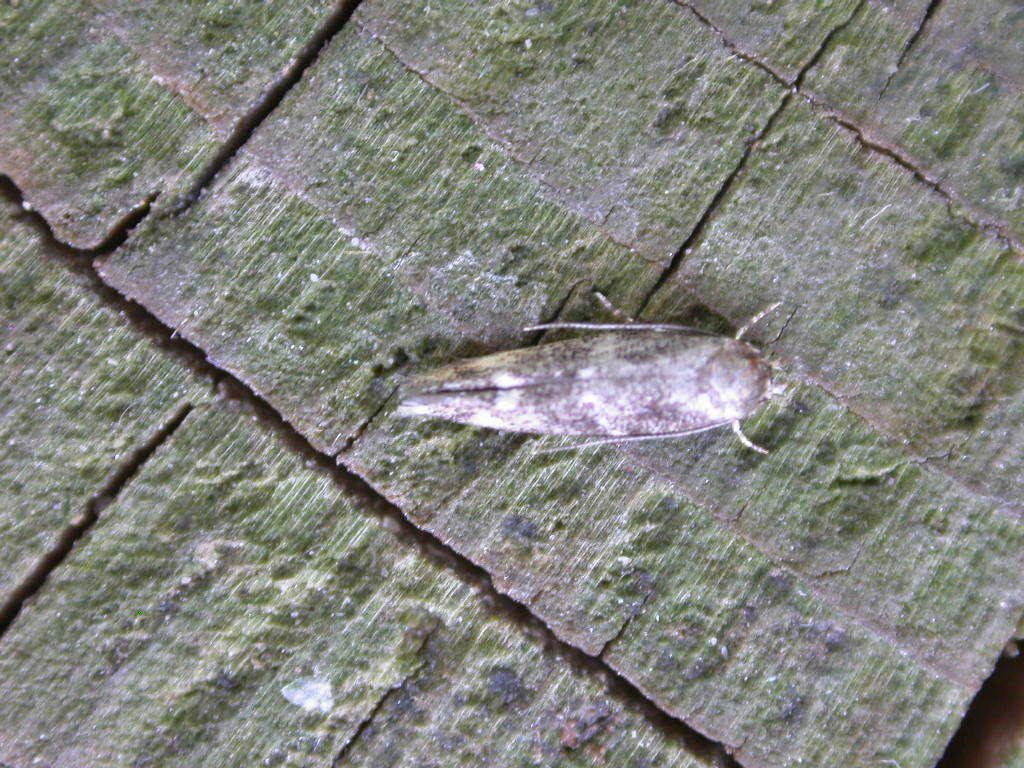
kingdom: Animalia
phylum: Arthropoda
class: Insecta
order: Lepidoptera
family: Momphidae
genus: Mompha
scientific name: Mompha subbistrigella
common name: Garden cosmet
